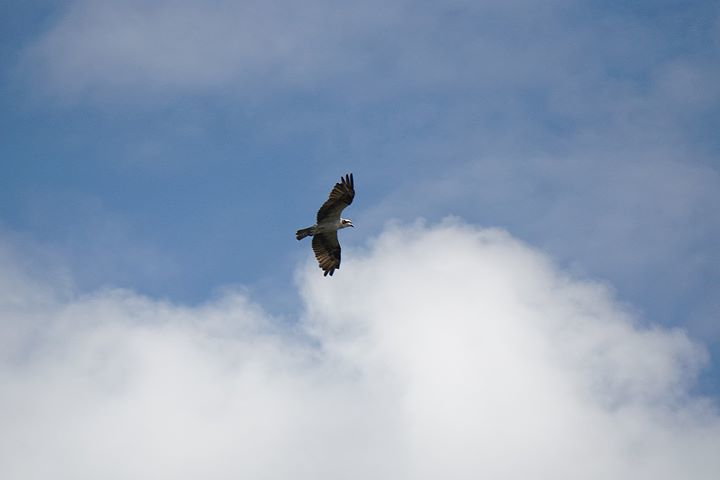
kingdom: Animalia
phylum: Chordata
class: Aves
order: Accipitriformes
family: Pandionidae
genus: Pandion
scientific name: Pandion haliaetus
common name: Osprey
